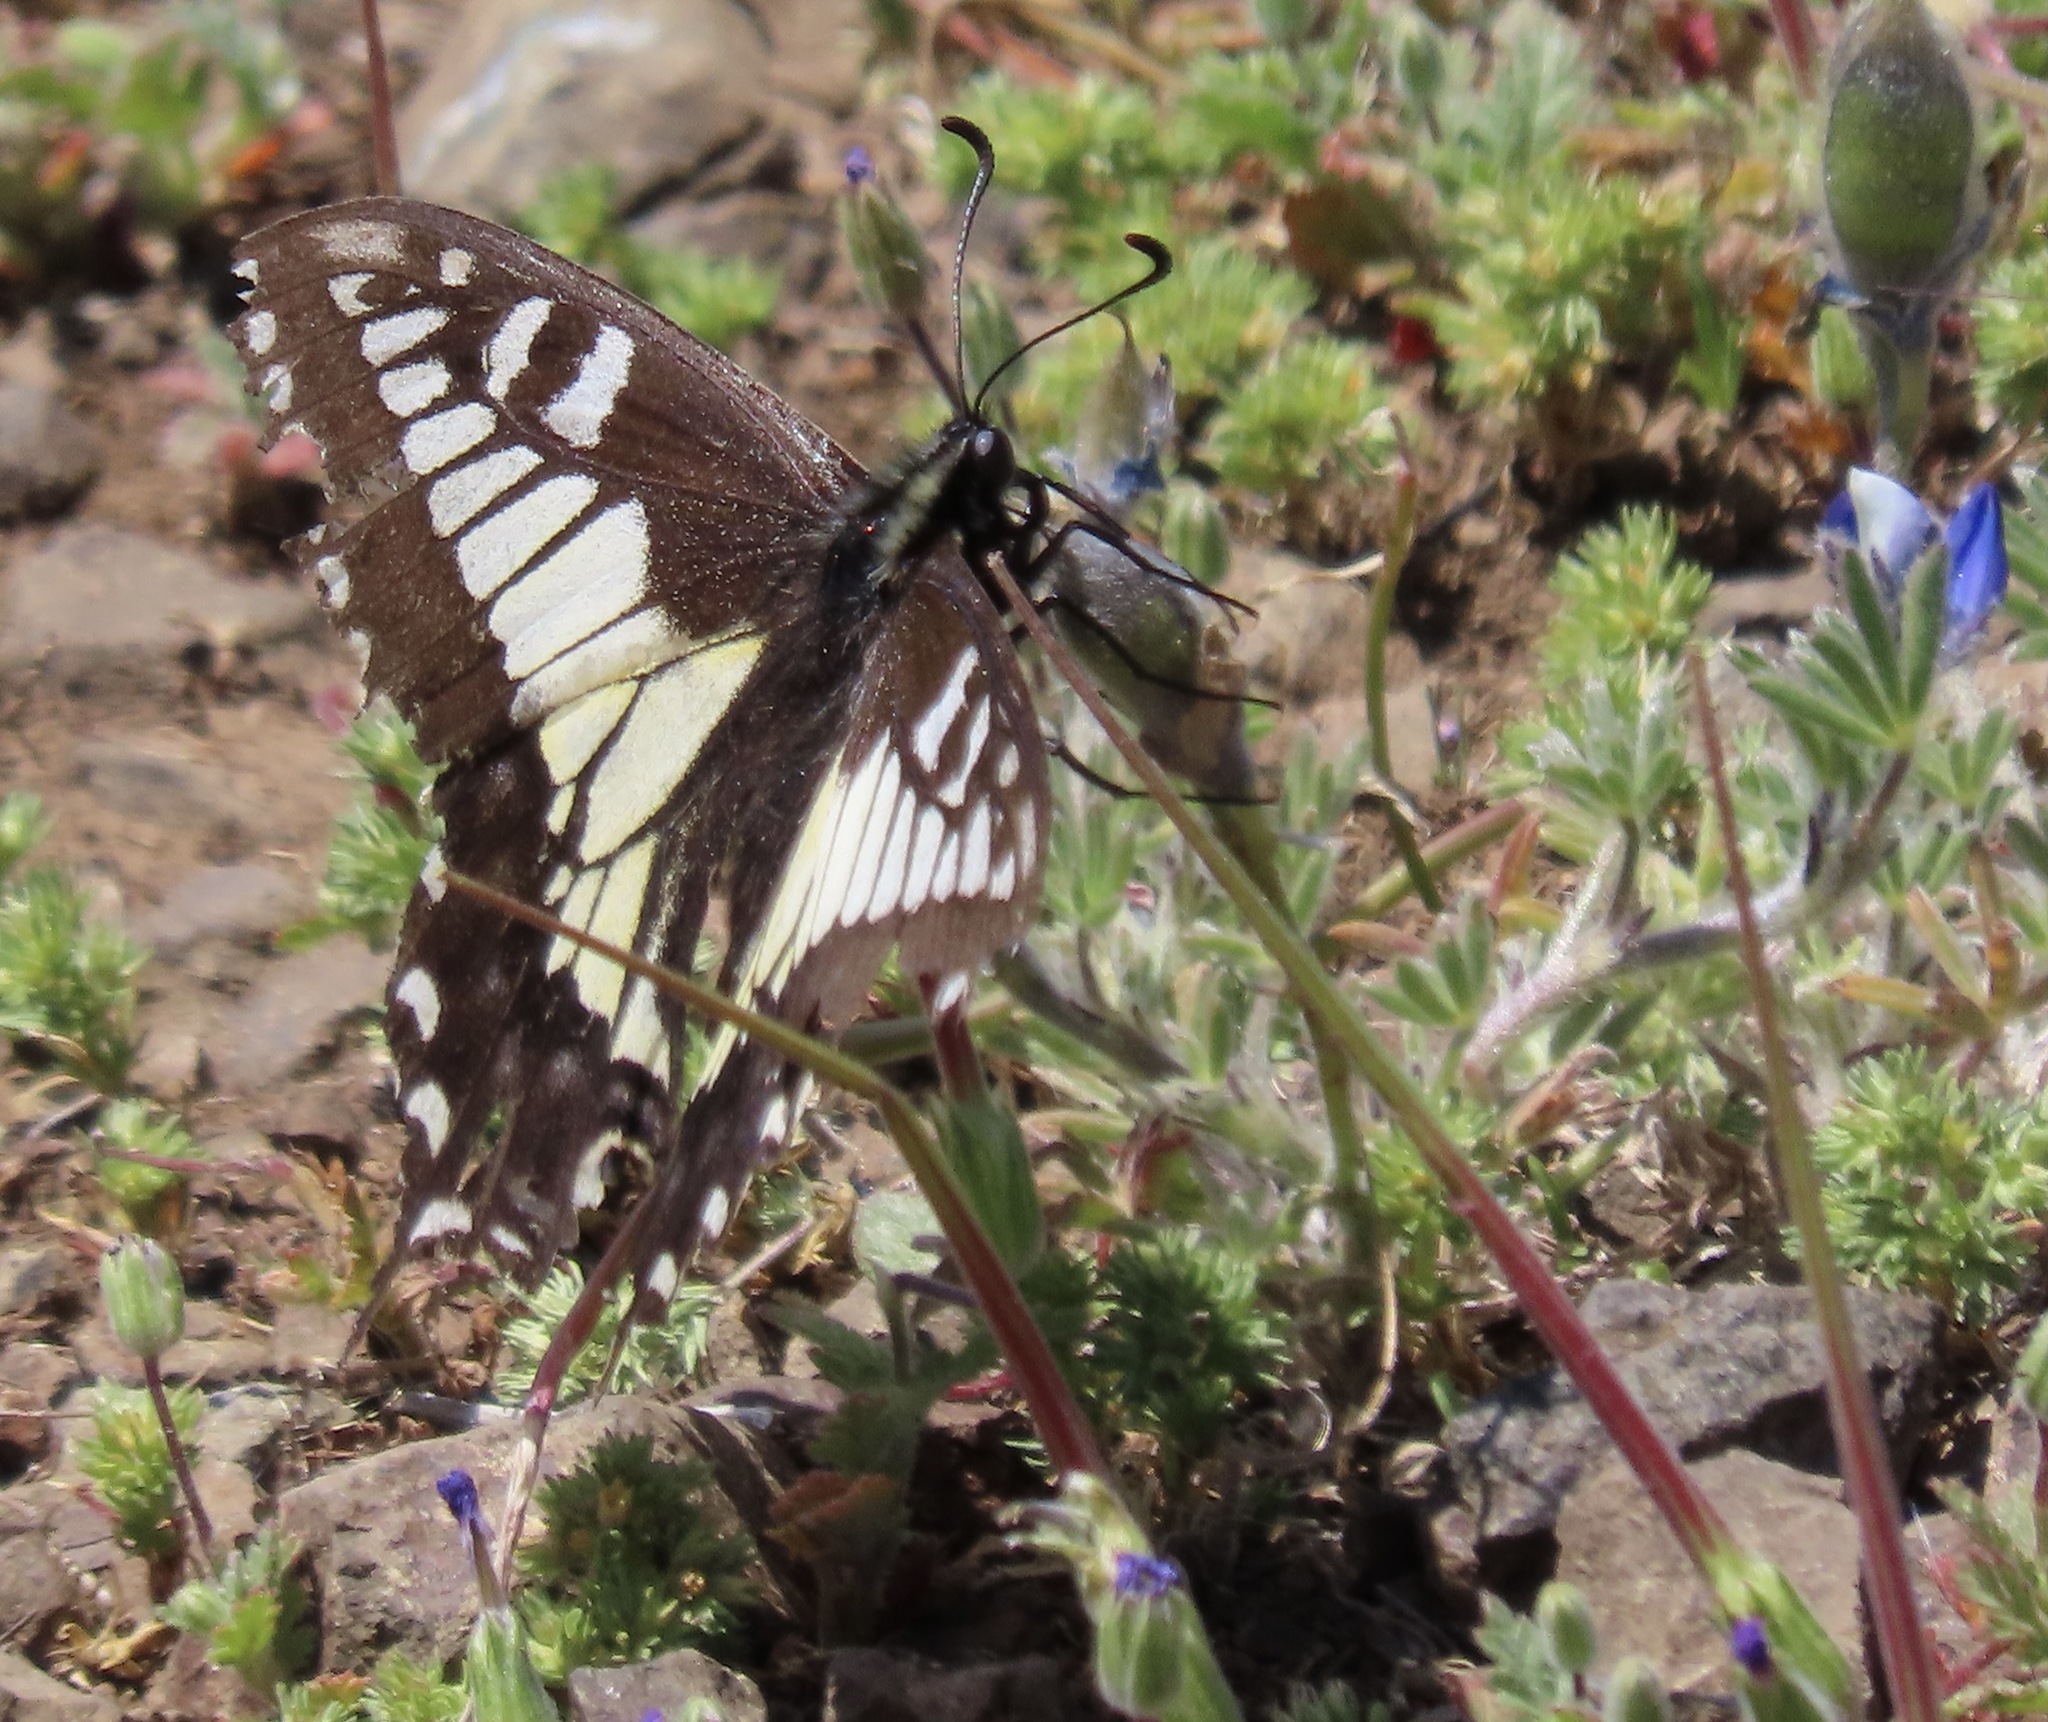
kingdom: Animalia
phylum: Arthropoda
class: Insecta
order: Lepidoptera
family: Papilionidae
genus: Papilio
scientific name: Papilio zelicaon
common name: Anise swallowtail
